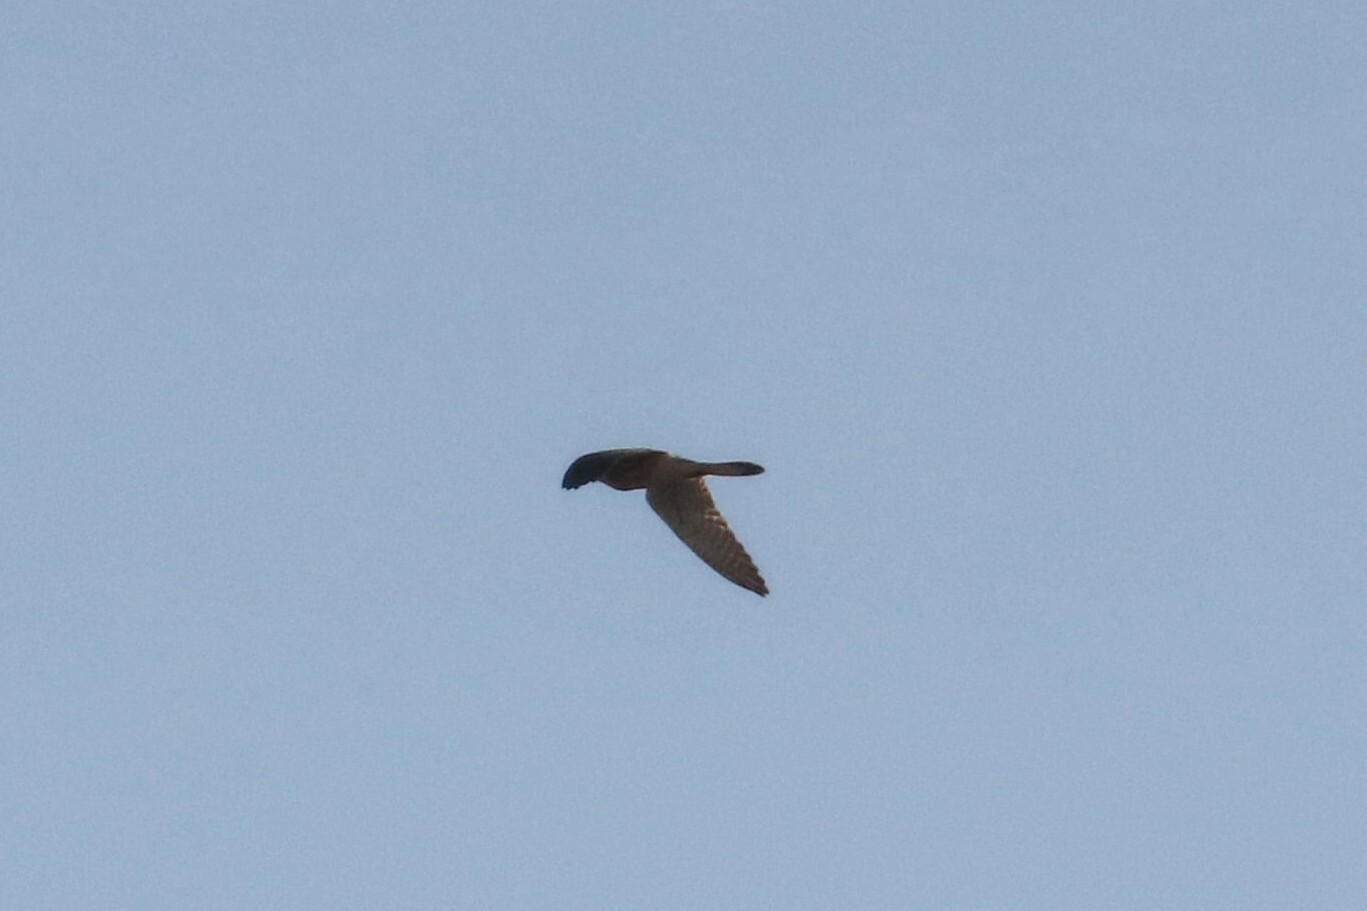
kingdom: Animalia
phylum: Chordata
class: Aves
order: Falconiformes
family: Falconidae
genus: Falco
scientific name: Falco tinnunculus
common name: Common kestrel
